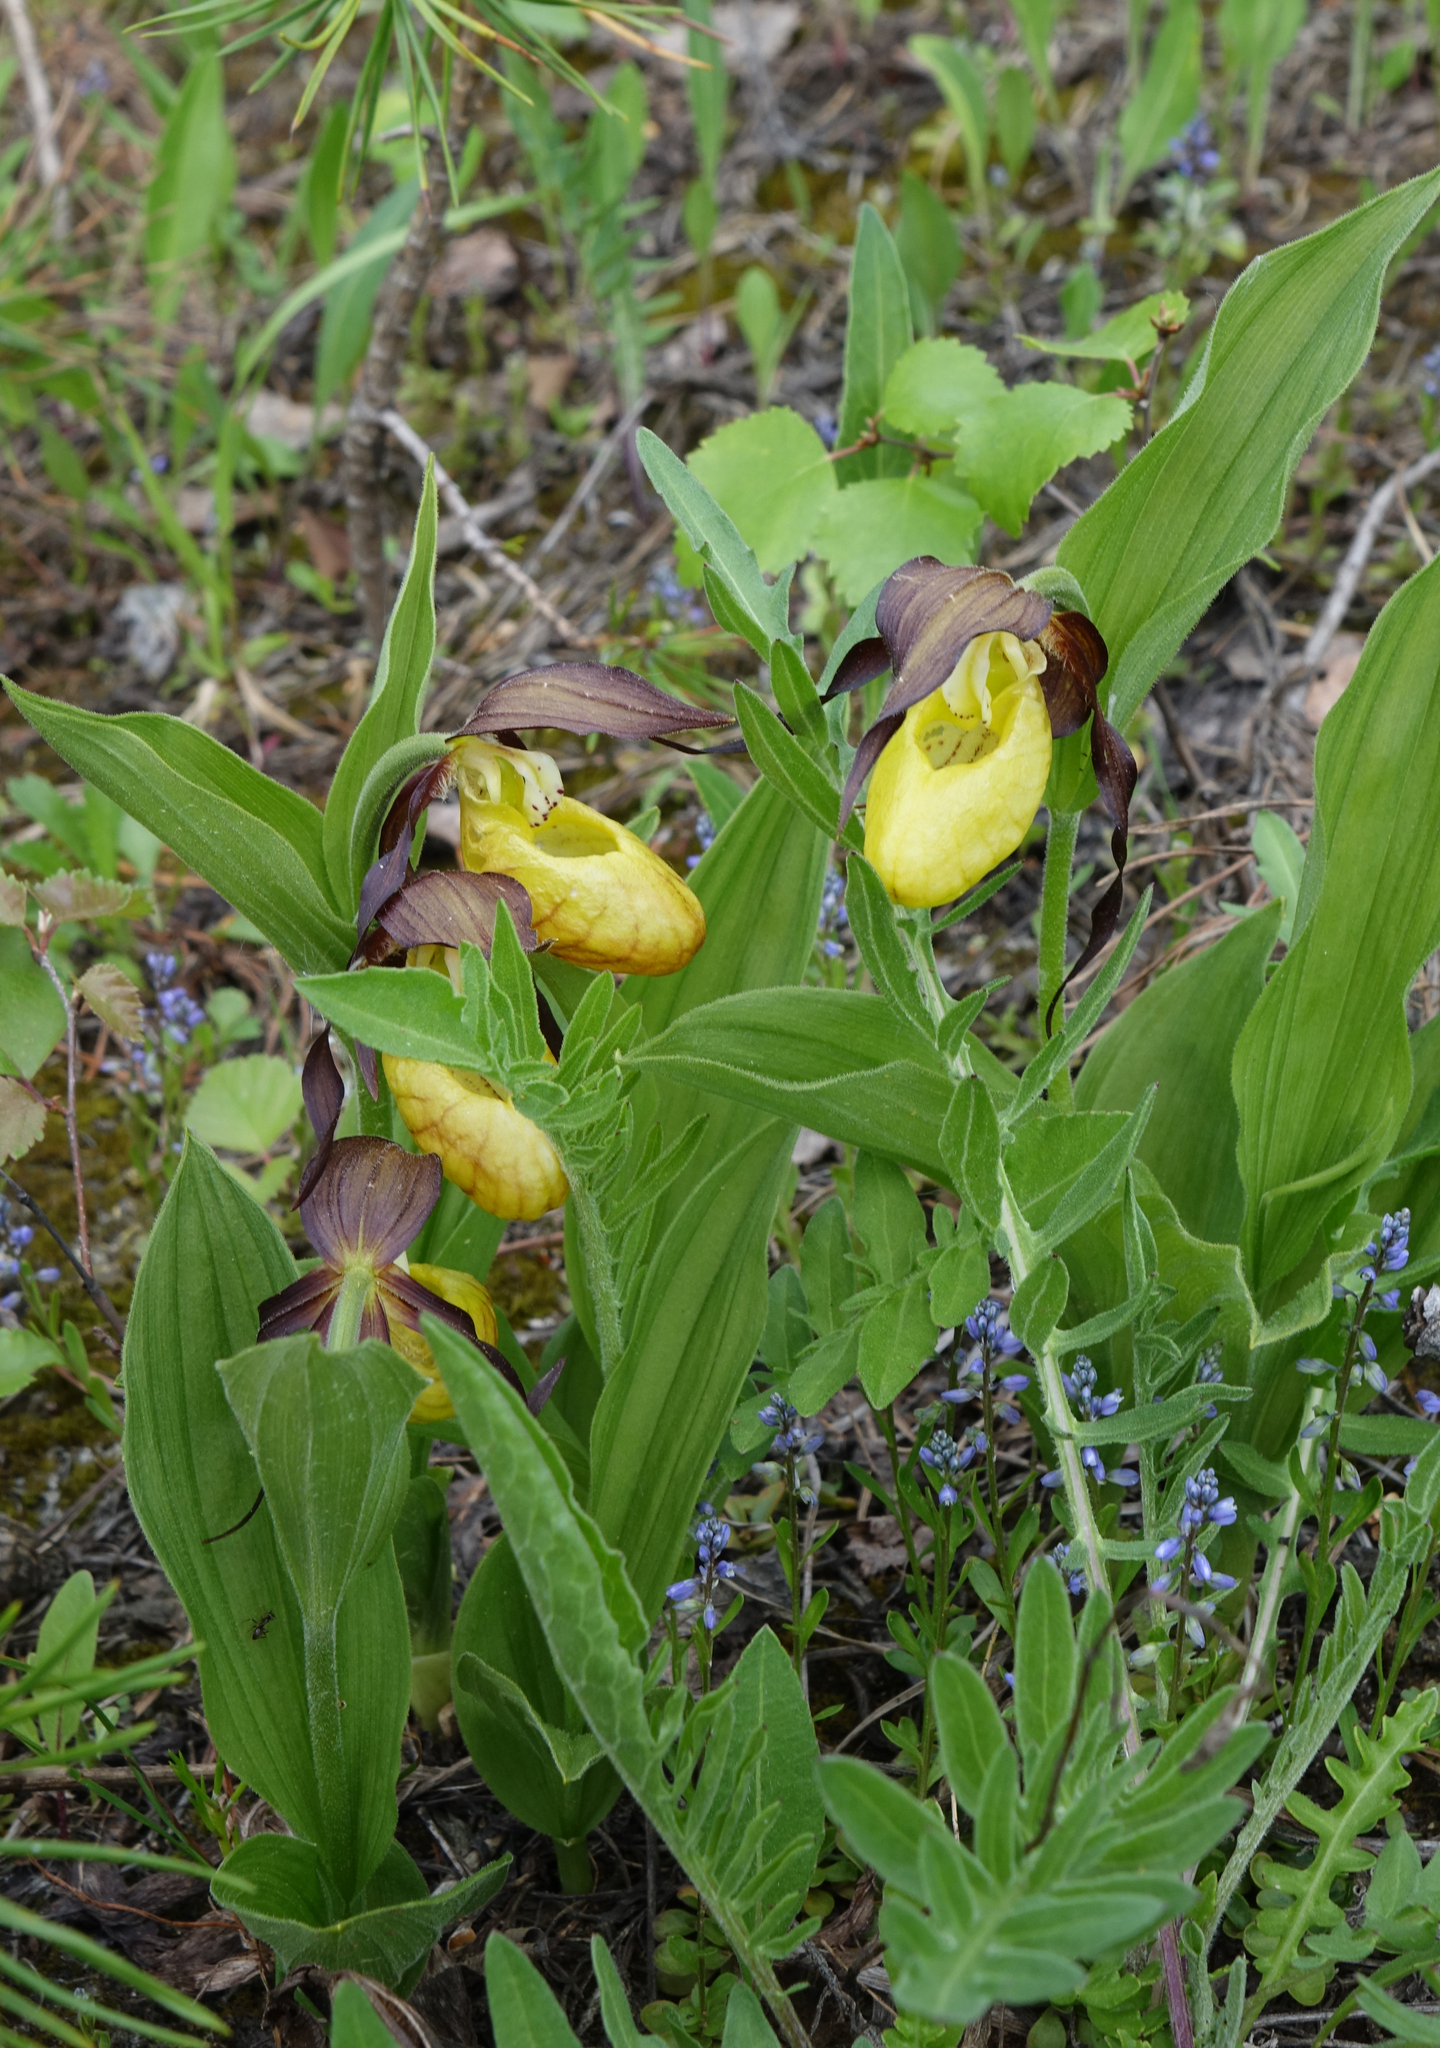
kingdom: Plantae
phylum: Tracheophyta
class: Liliopsida
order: Asparagales
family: Orchidaceae
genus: Cypripedium
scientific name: Cypripedium calceolus
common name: Lady's-slipper
